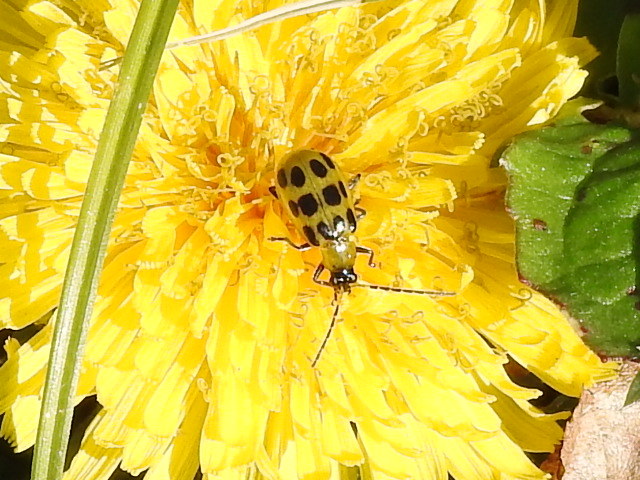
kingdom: Animalia
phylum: Arthropoda
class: Insecta
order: Coleoptera
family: Chrysomelidae
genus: Diabrotica
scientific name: Diabrotica undecimpunctata
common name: Spotted cucumber beetle
